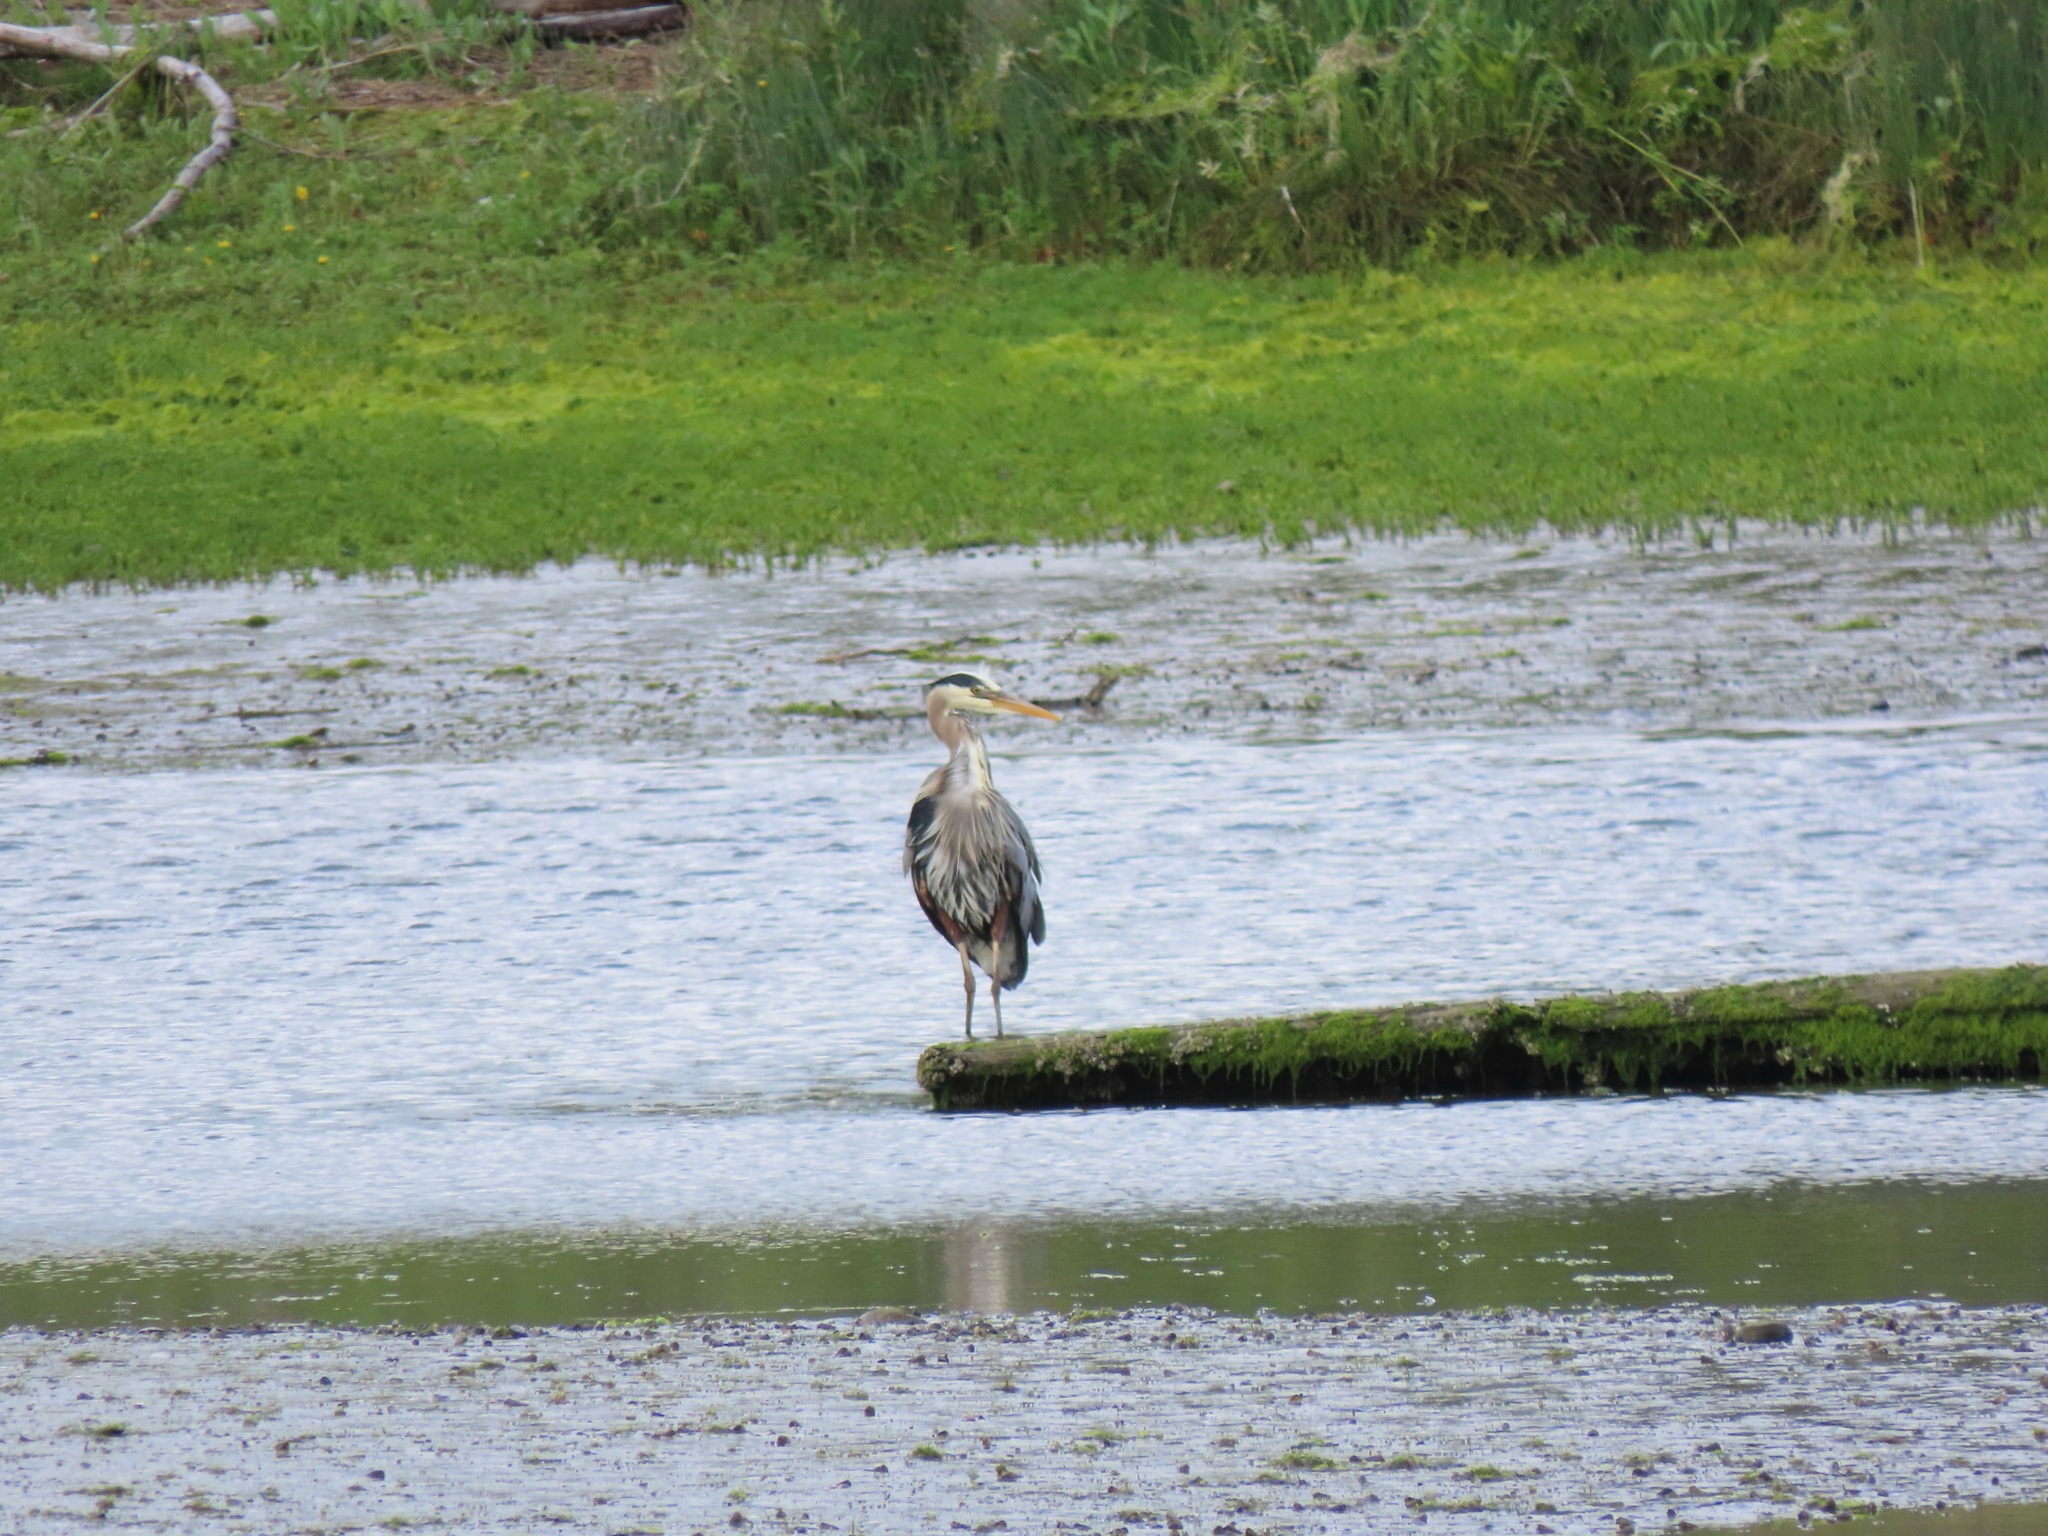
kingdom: Animalia
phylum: Chordata
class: Aves
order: Pelecaniformes
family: Ardeidae
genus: Ardea
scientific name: Ardea herodias
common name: Great blue heron
